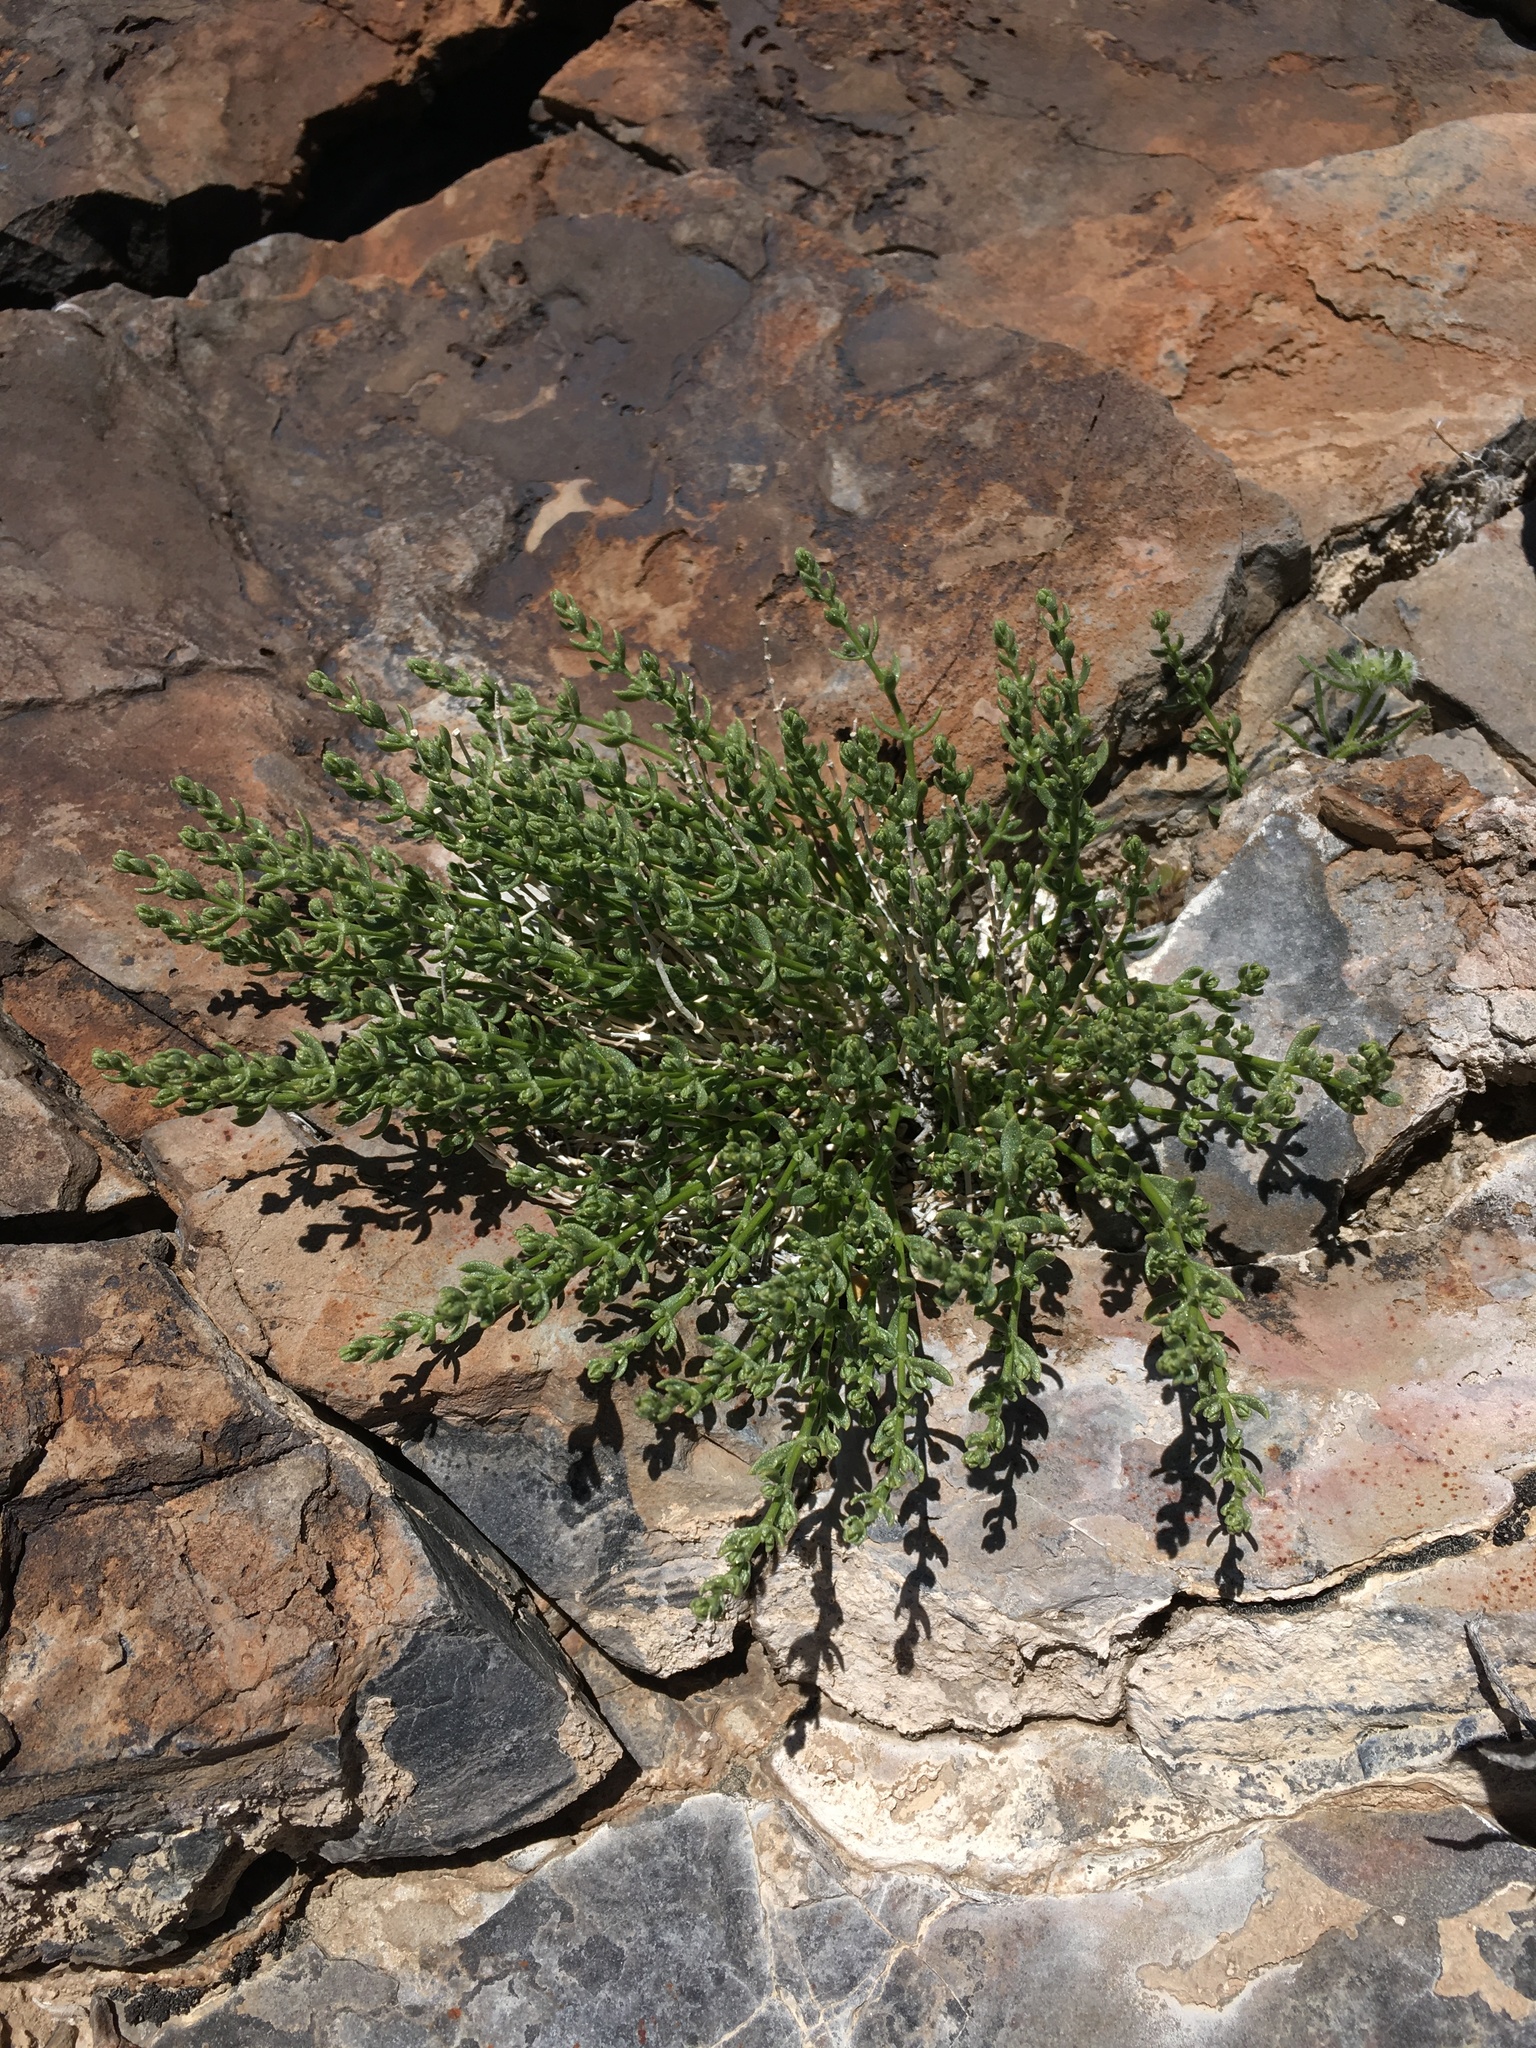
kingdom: Plantae
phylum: Tracheophyta
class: Magnoliopsida
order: Caryophyllales
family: Caryophyllaceae
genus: Scopulophila
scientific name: Scopulophila rixfordii
